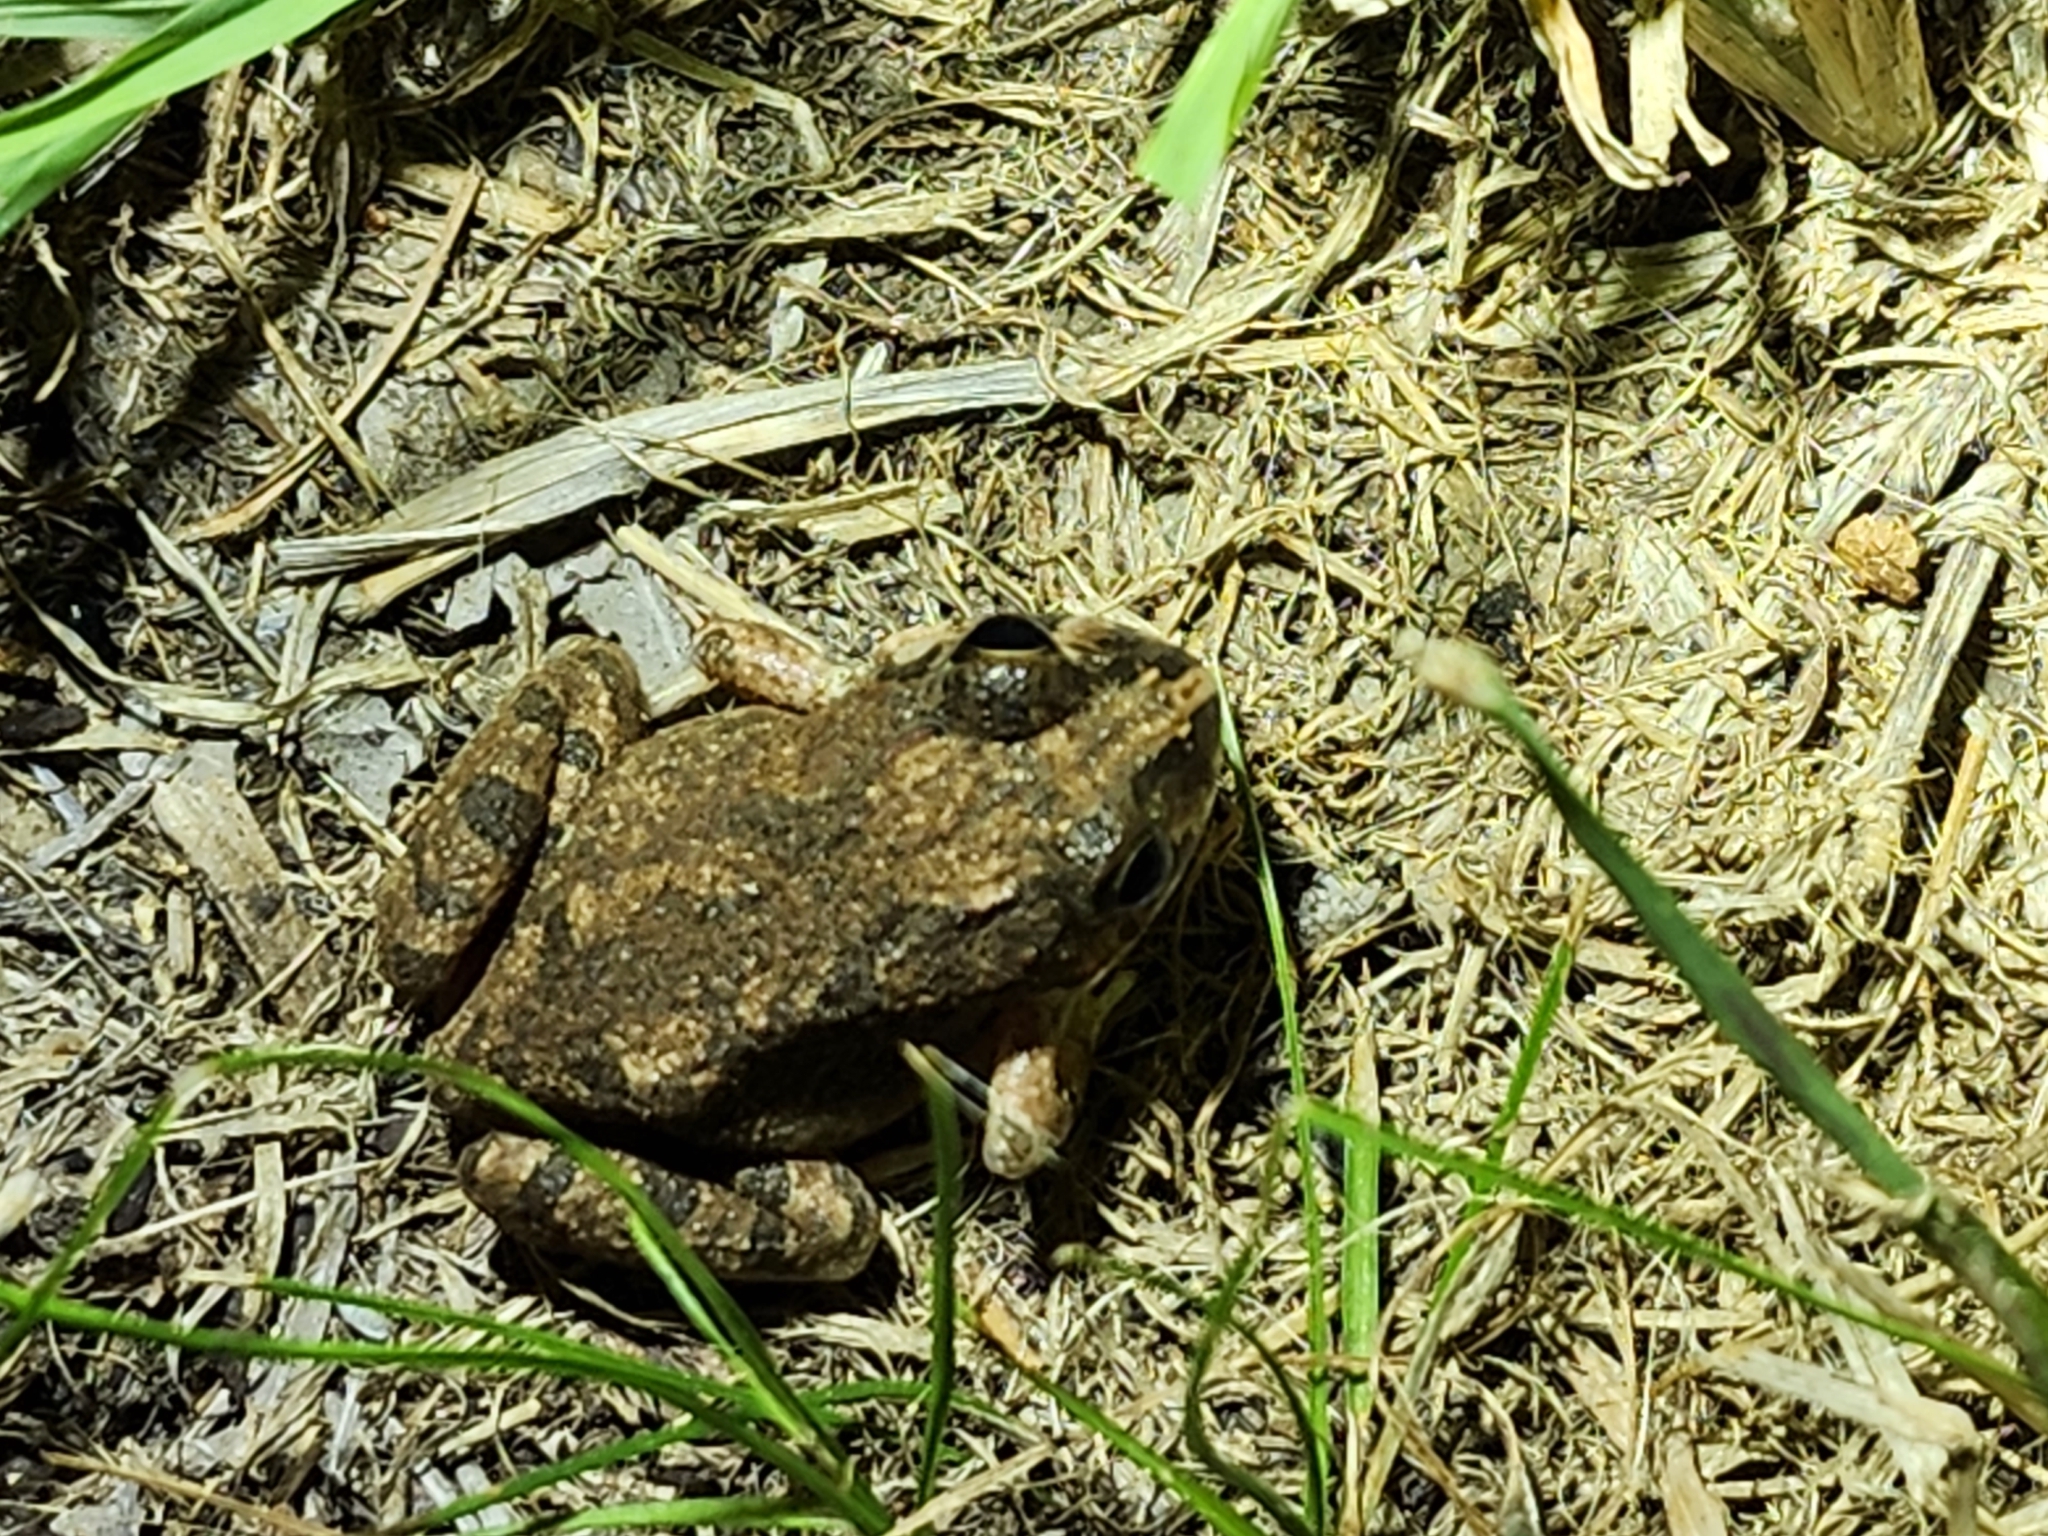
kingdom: Animalia
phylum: Chordata
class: Amphibia
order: Anura
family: Limnodynastidae
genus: Platyplectrum
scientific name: Platyplectrum ornatum
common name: Ornate burrowing frog
